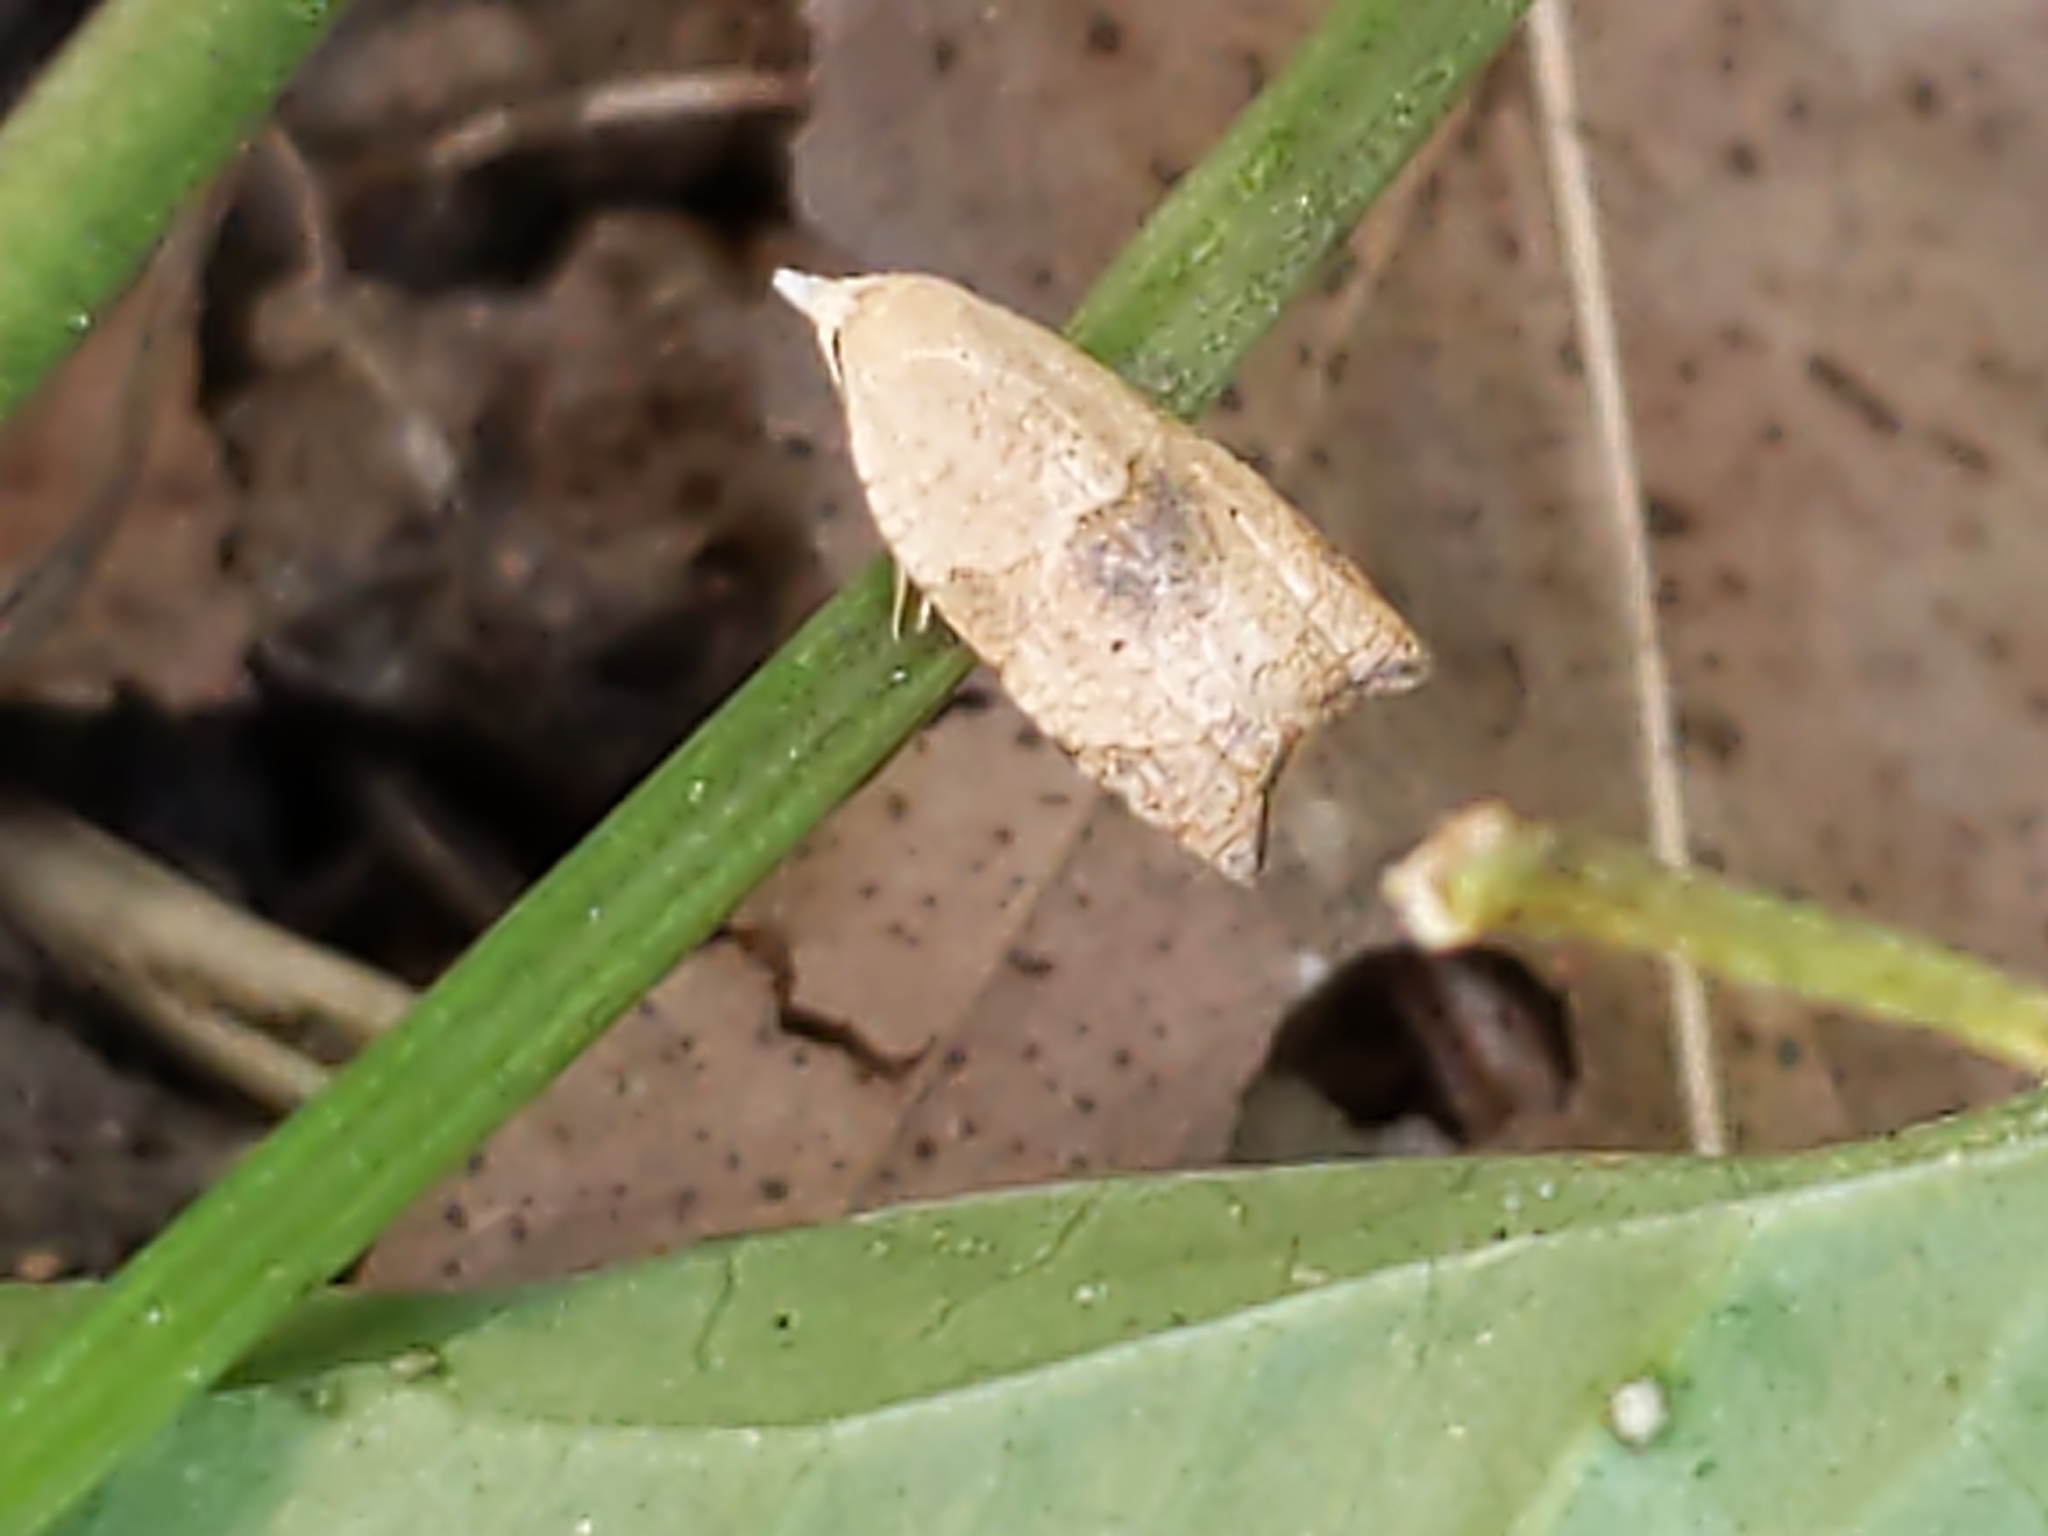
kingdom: Animalia
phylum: Arthropoda
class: Insecta
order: Lepidoptera
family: Tortricidae
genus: Coelostathma
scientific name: Coelostathma discopunctana
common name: Batman moth
